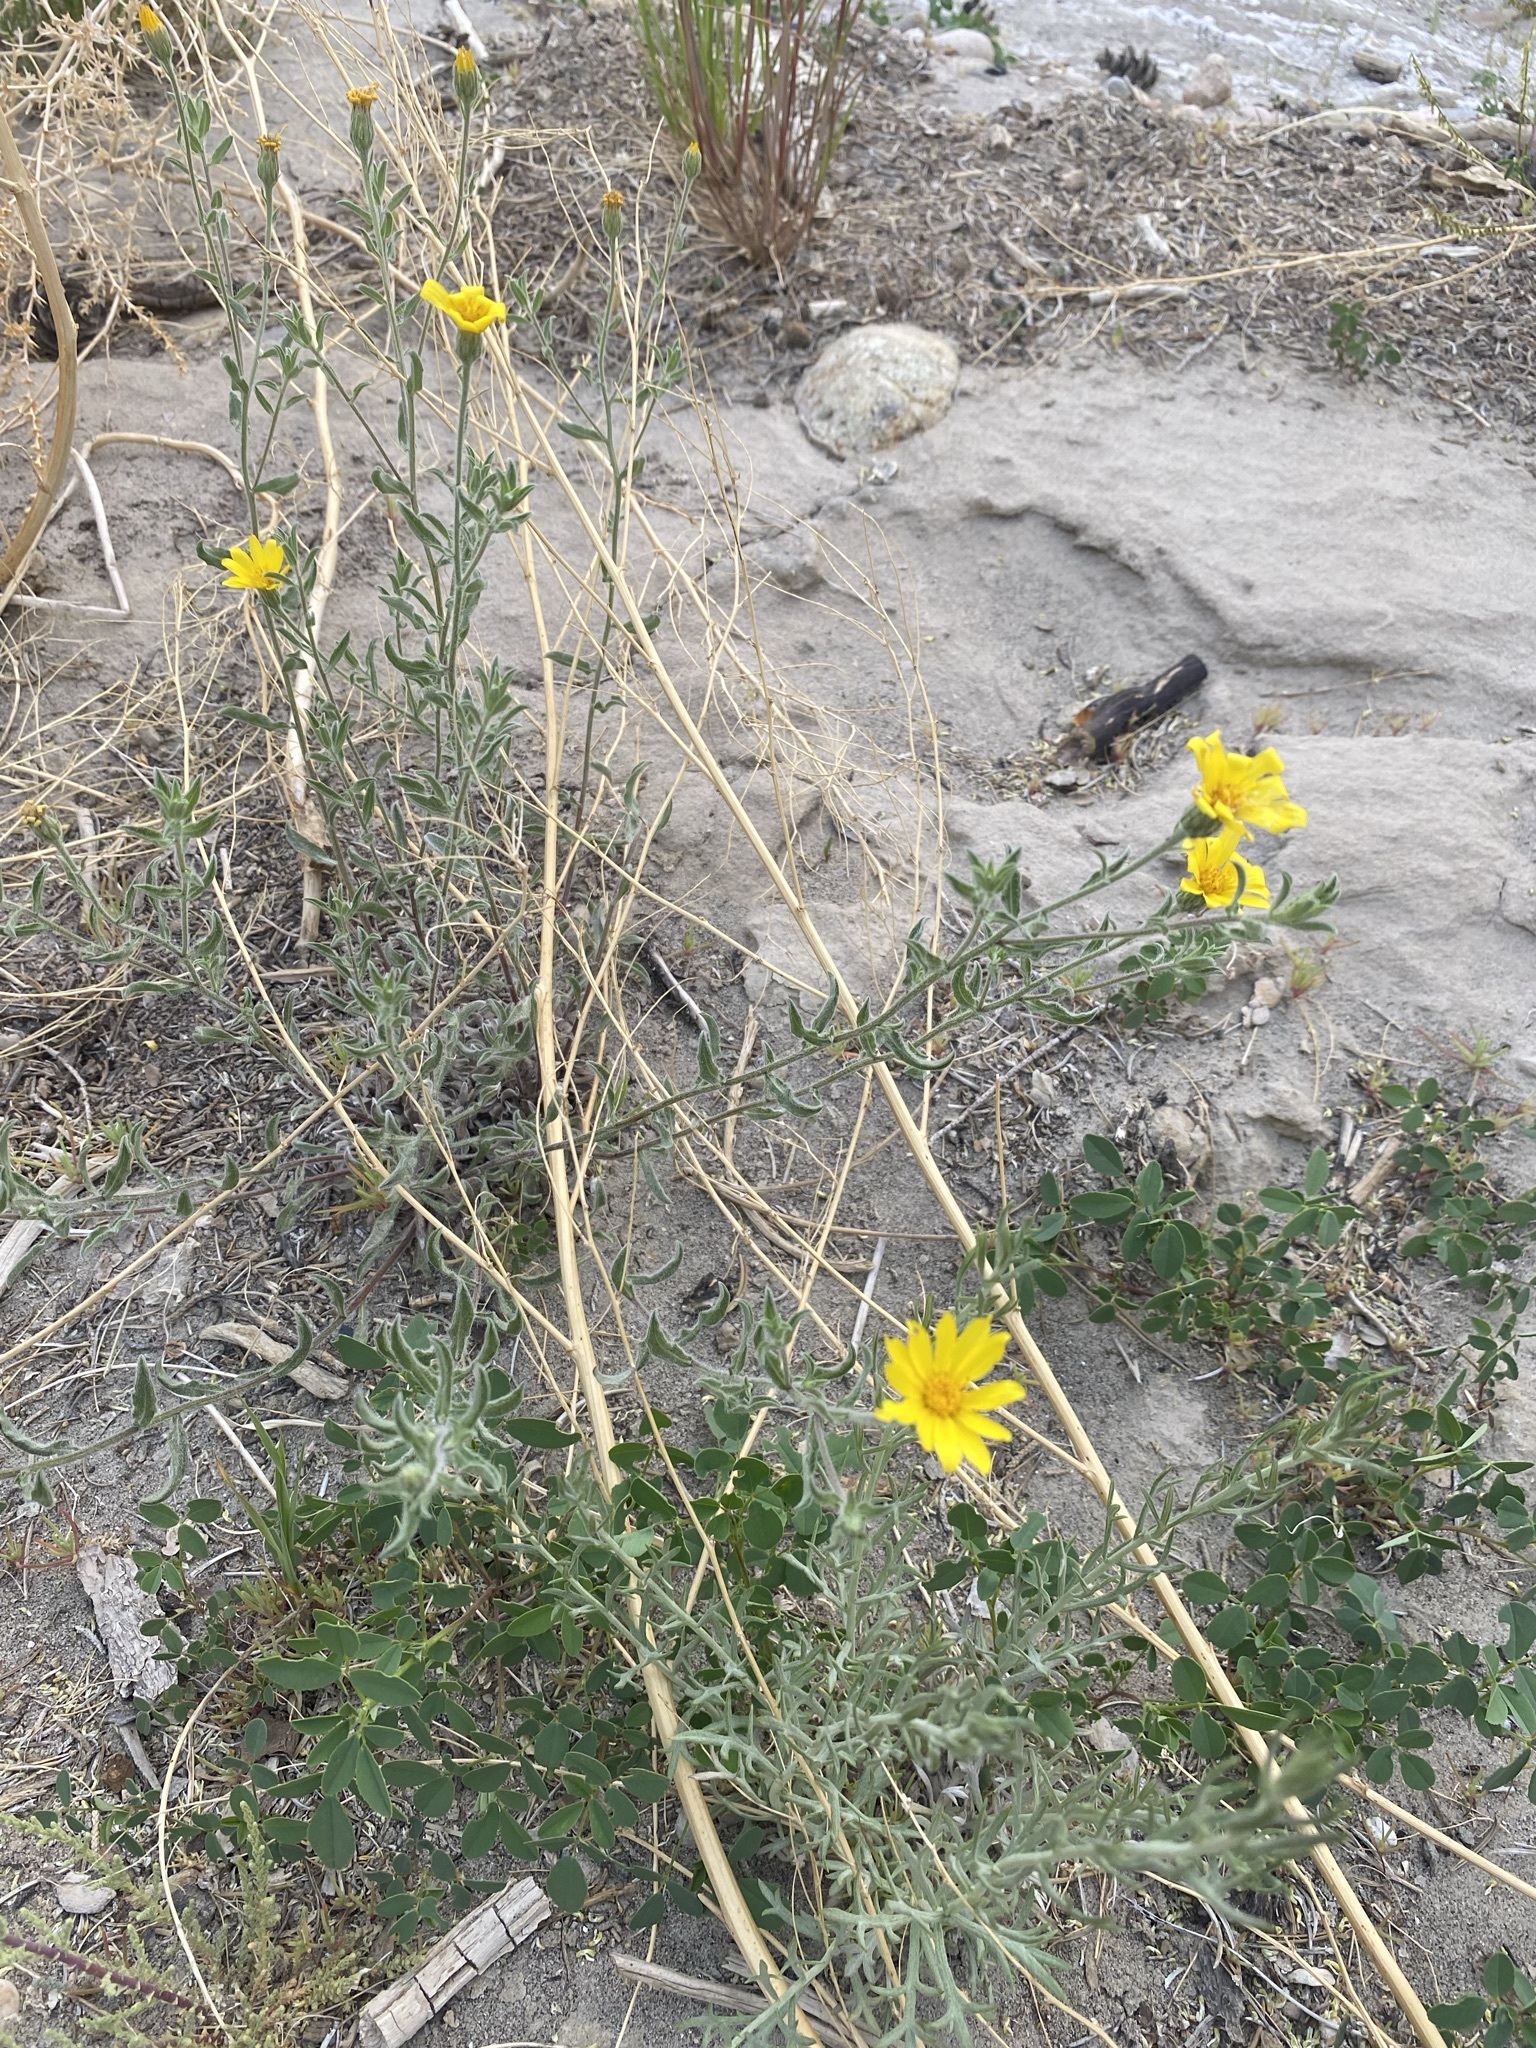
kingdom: Plantae
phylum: Tracheophyta
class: Magnoliopsida
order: Asterales
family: Asteraceae
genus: Heterotheca
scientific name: Heterotheca polothrix
